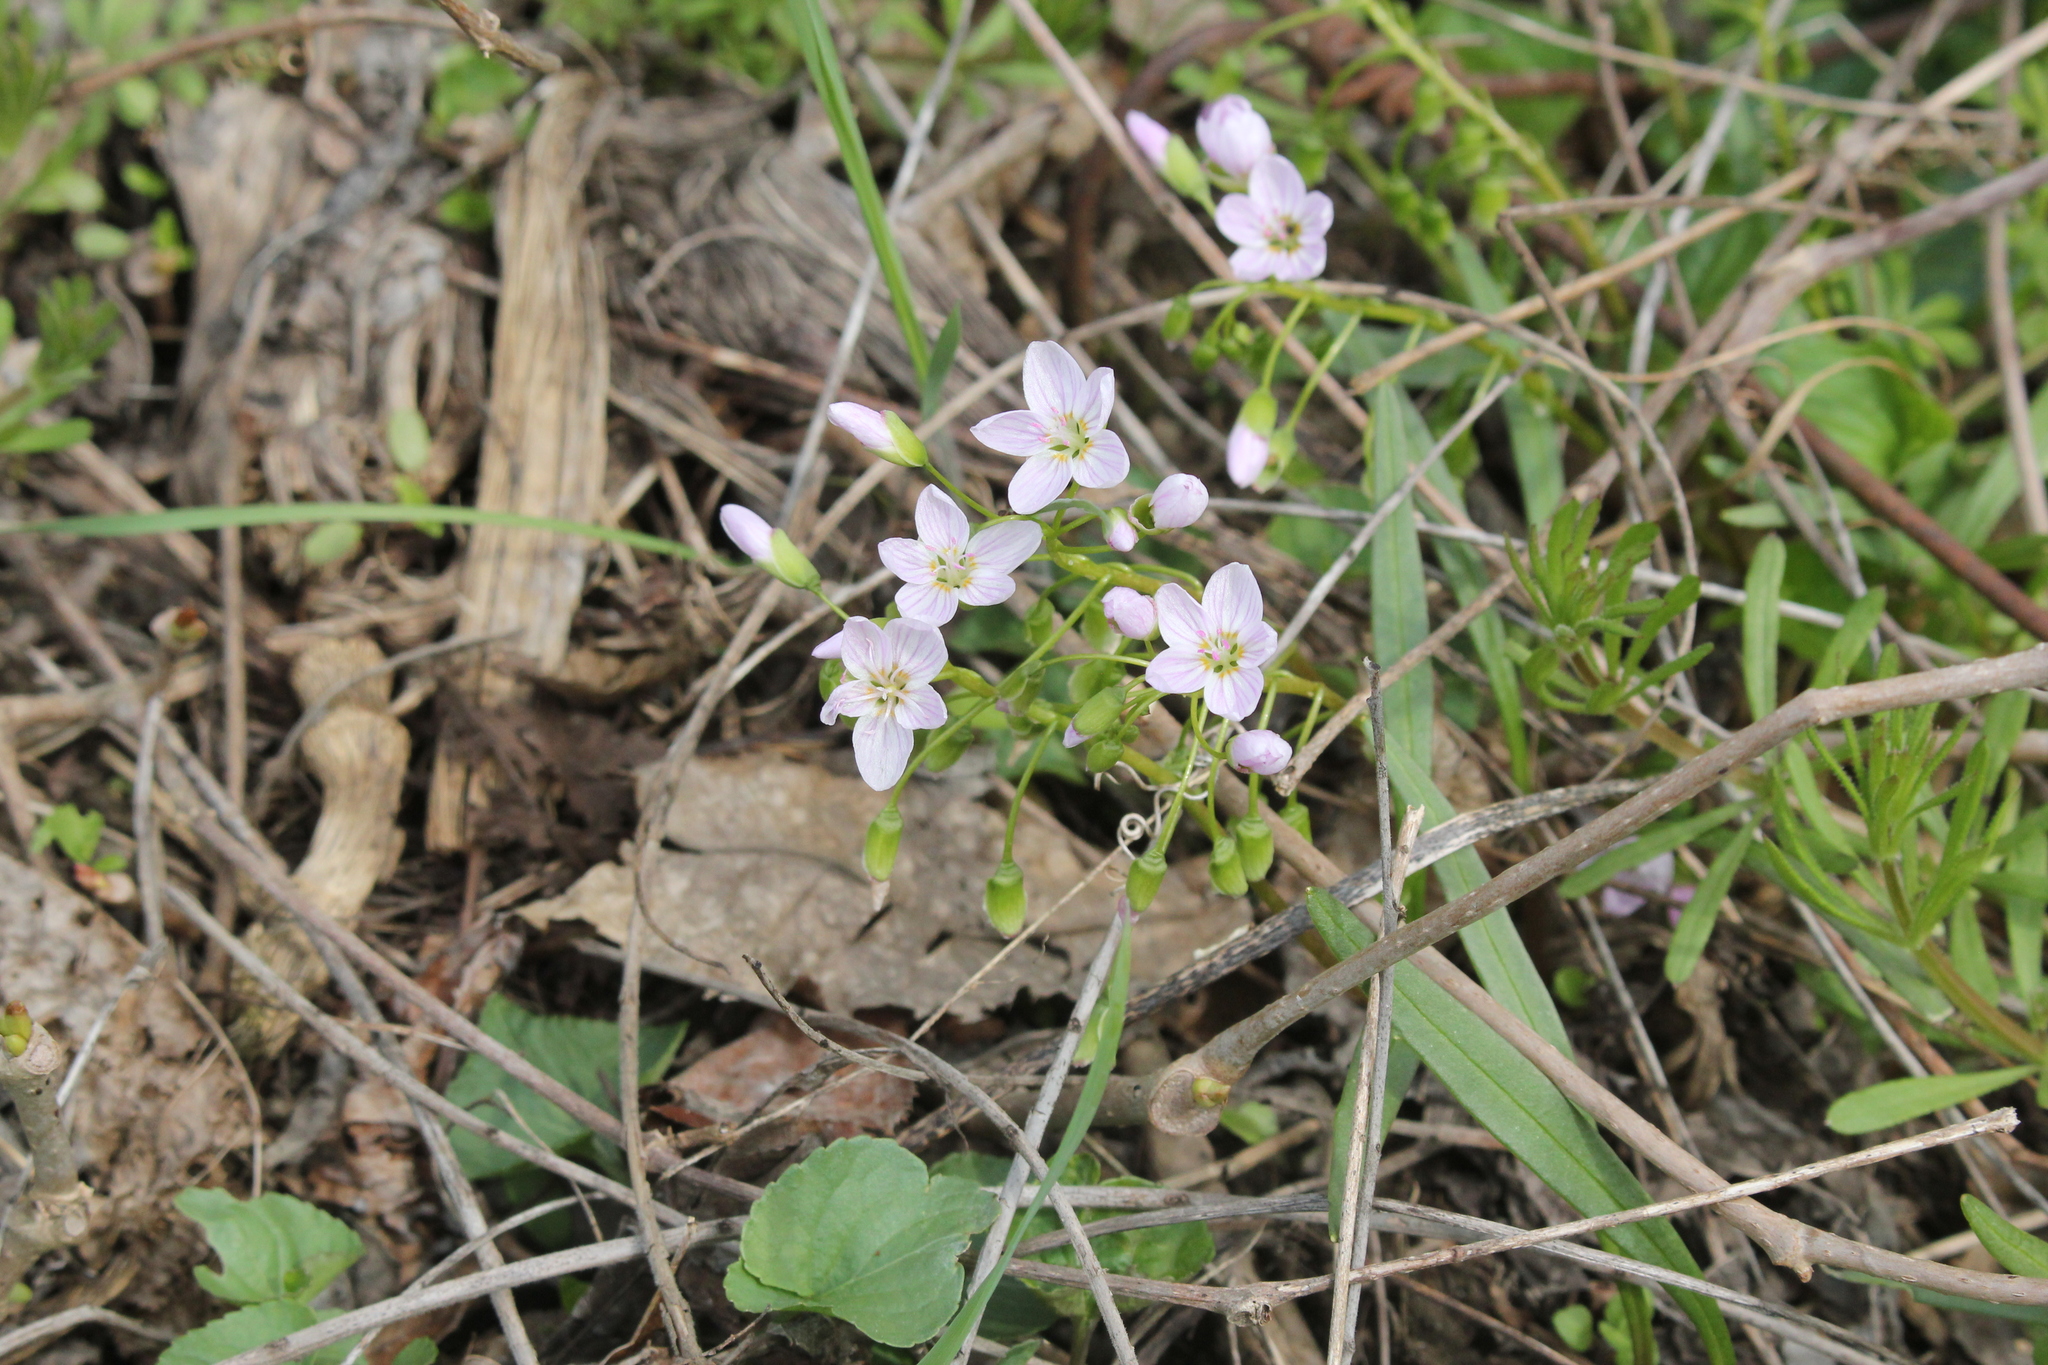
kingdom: Plantae
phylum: Tracheophyta
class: Magnoliopsida
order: Caryophyllales
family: Montiaceae
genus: Claytonia
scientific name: Claytonia virginica
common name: Virginia springbeauty
